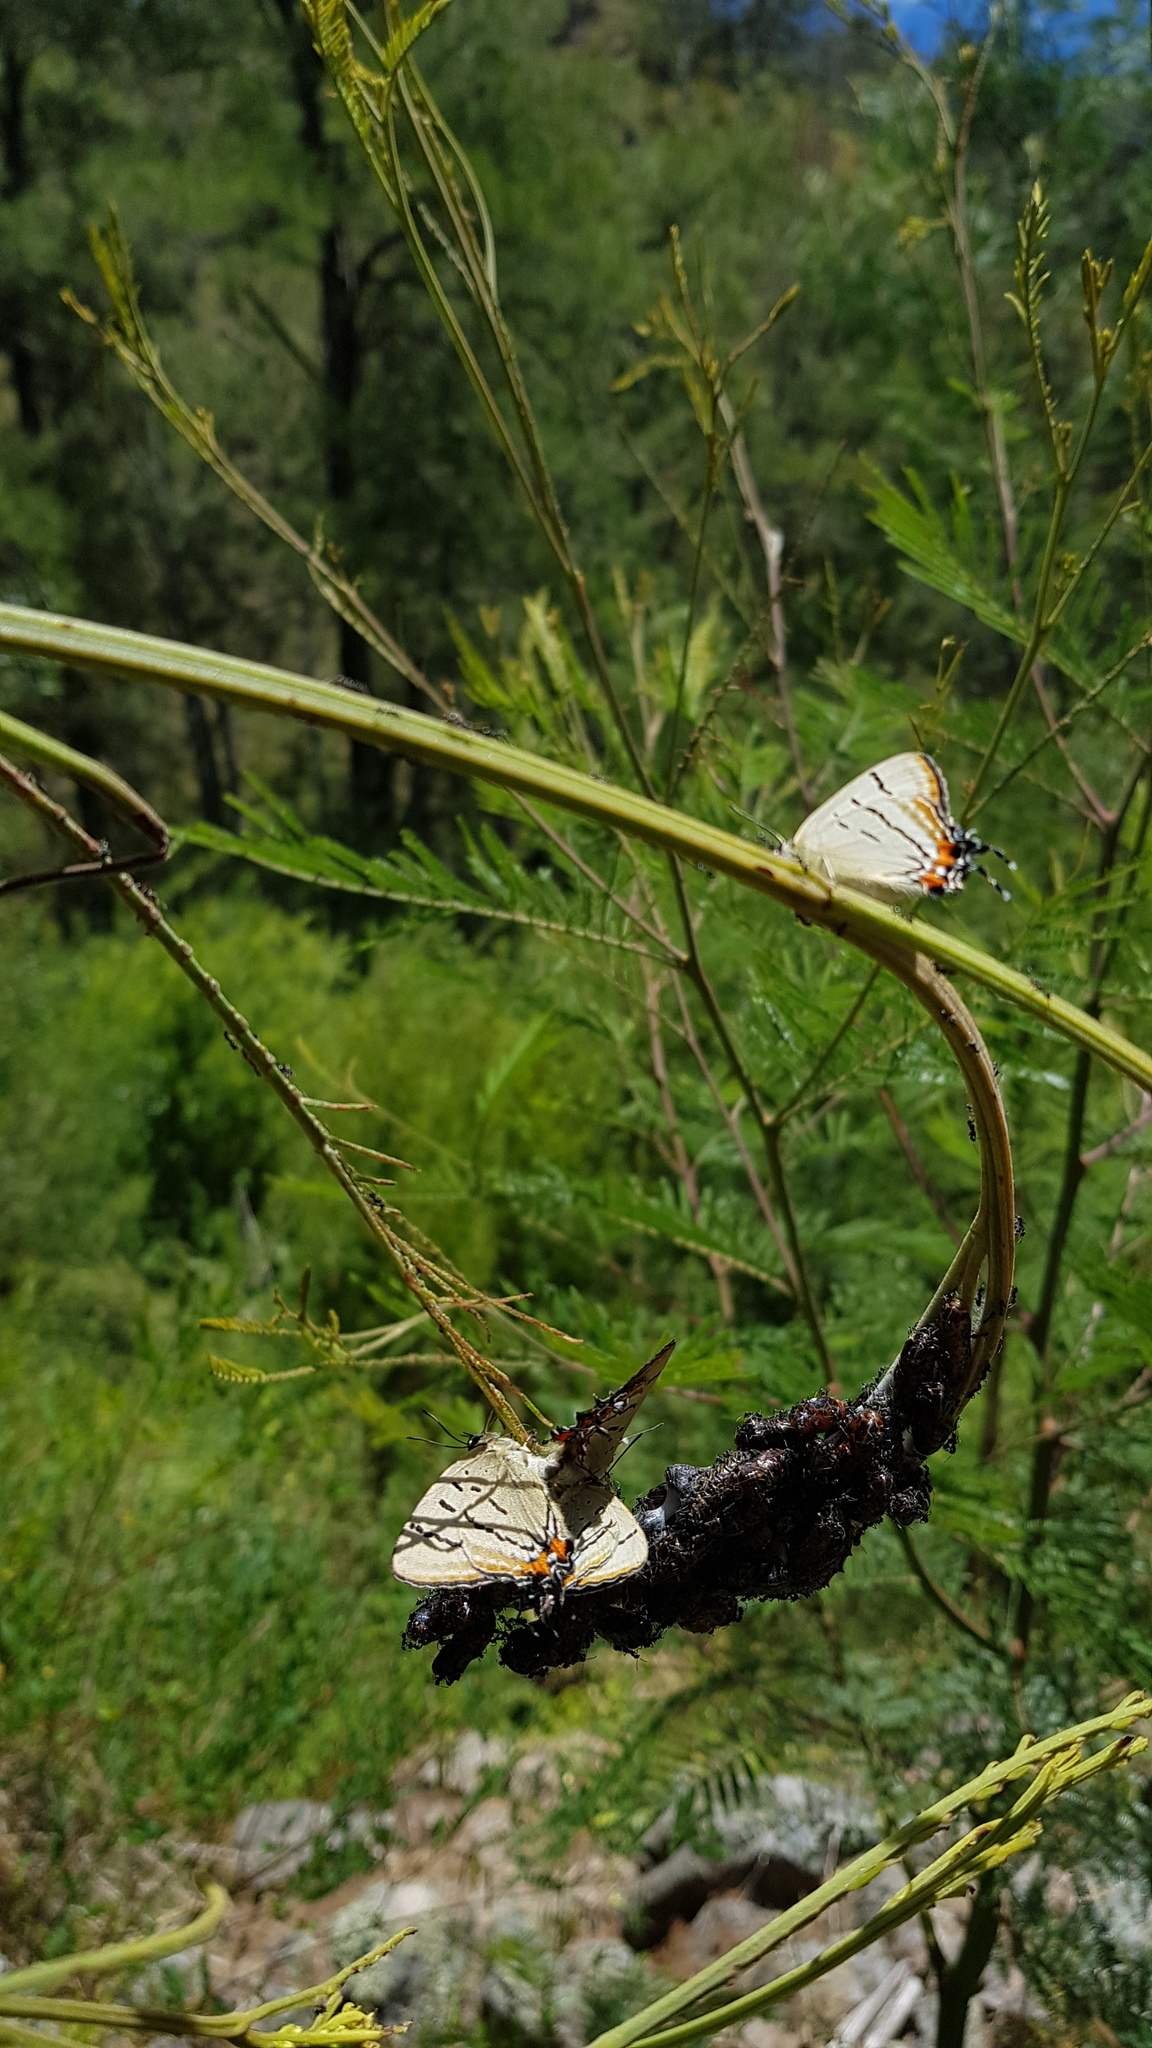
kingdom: Animalia
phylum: Arthropoda
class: Insecta
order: Lepidoptera
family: Lycaenidae
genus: Jalmenus
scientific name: Jalmenus evagoras
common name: Common imperial blue
